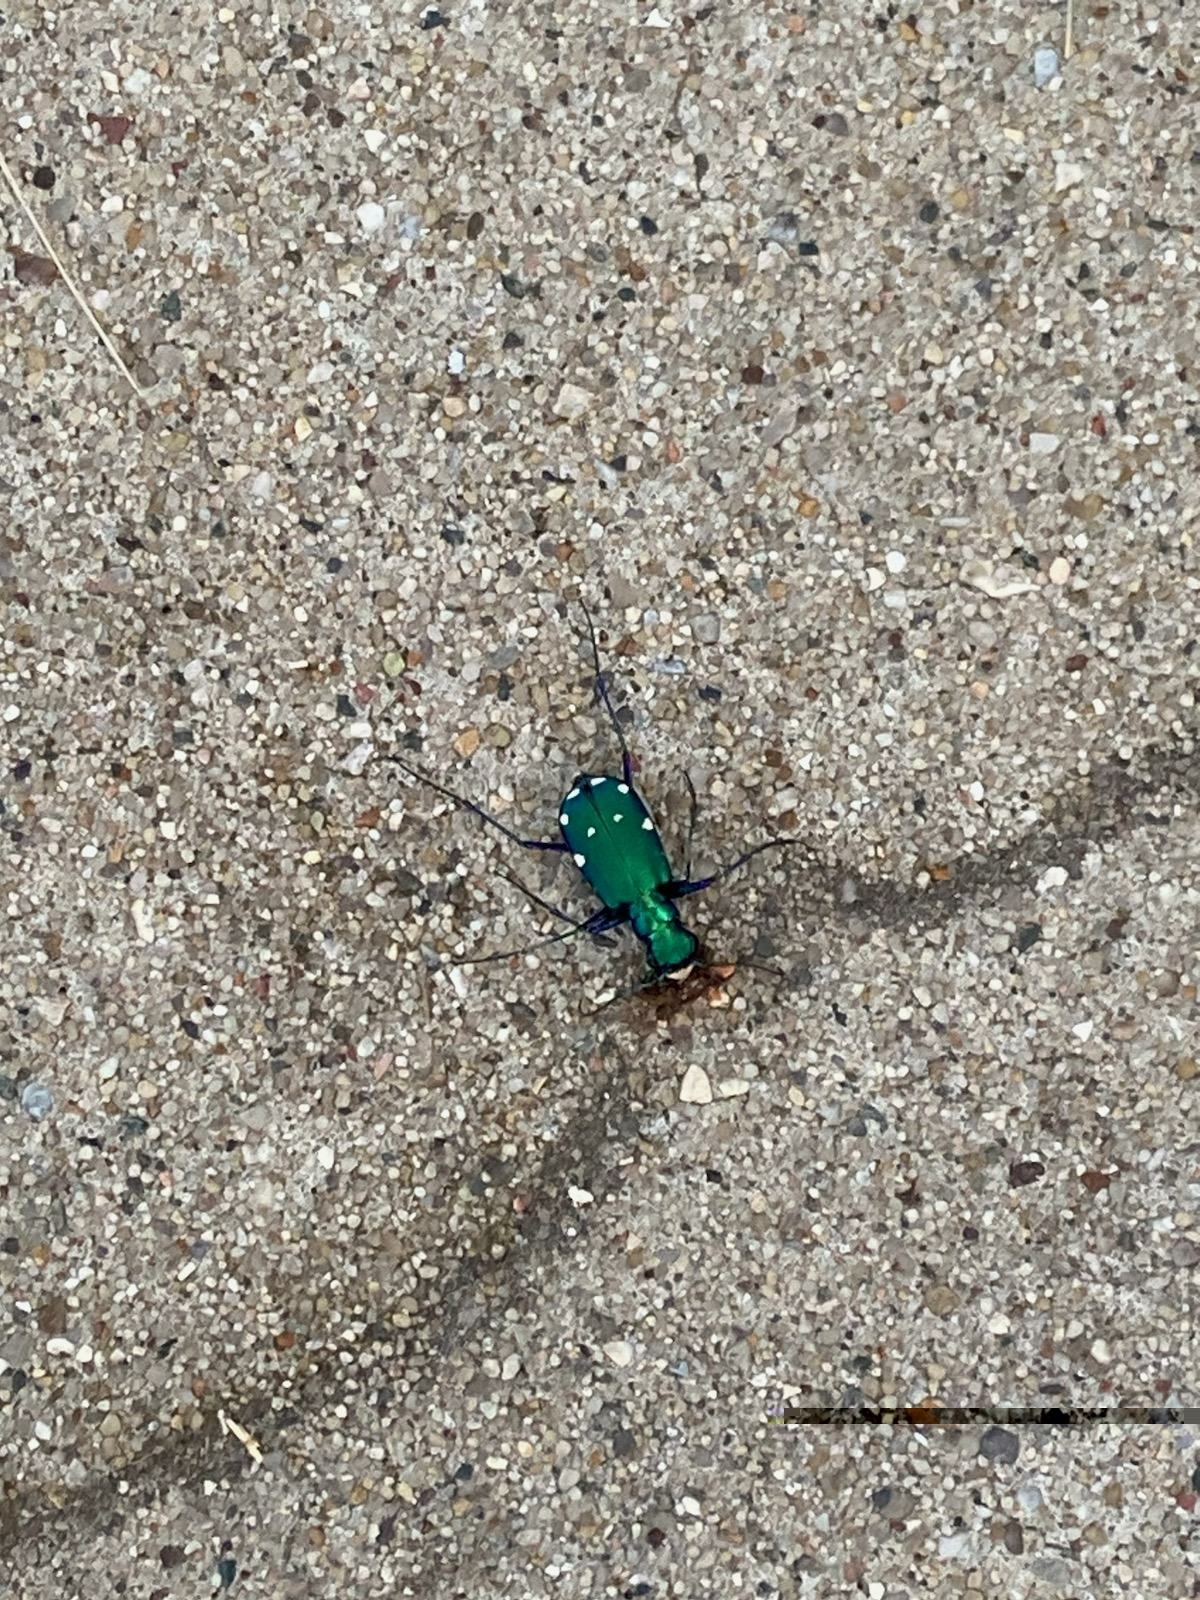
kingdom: Animalia
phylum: Arthropoda
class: Insecta
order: Coleoptera
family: Carabidae
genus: Cicindela
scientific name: Cicindela sexguttata
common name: Six-spotted tiger beetle
